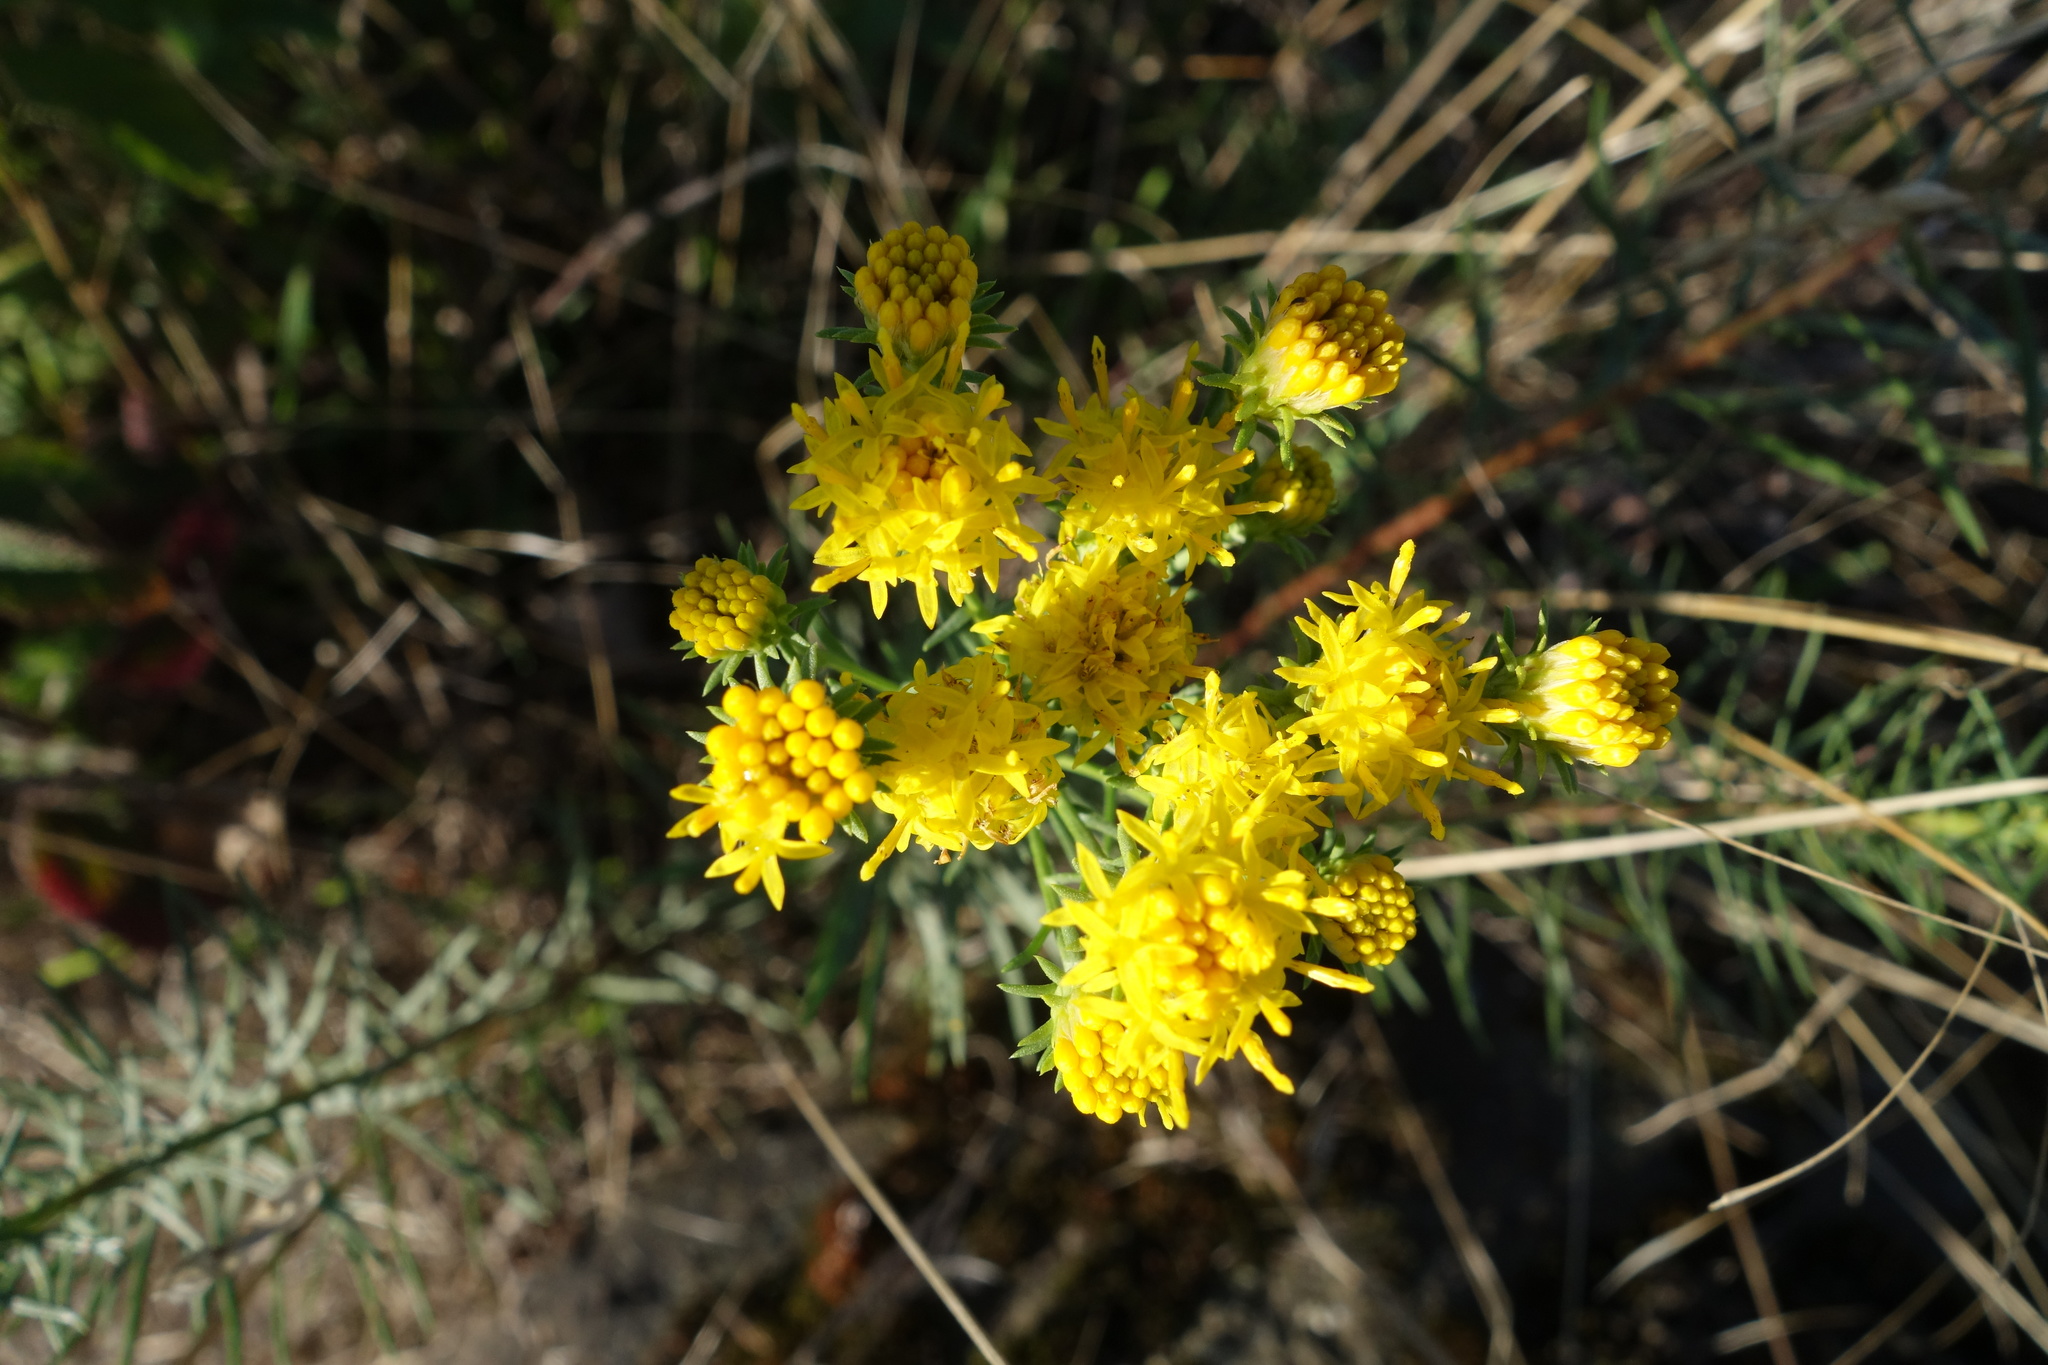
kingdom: Plantae
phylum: Tracheophyta
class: Magnoliopsida
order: Asterales
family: Asteraceae
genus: Galatella
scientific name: Galatella linosyris
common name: Goldilocks aster
